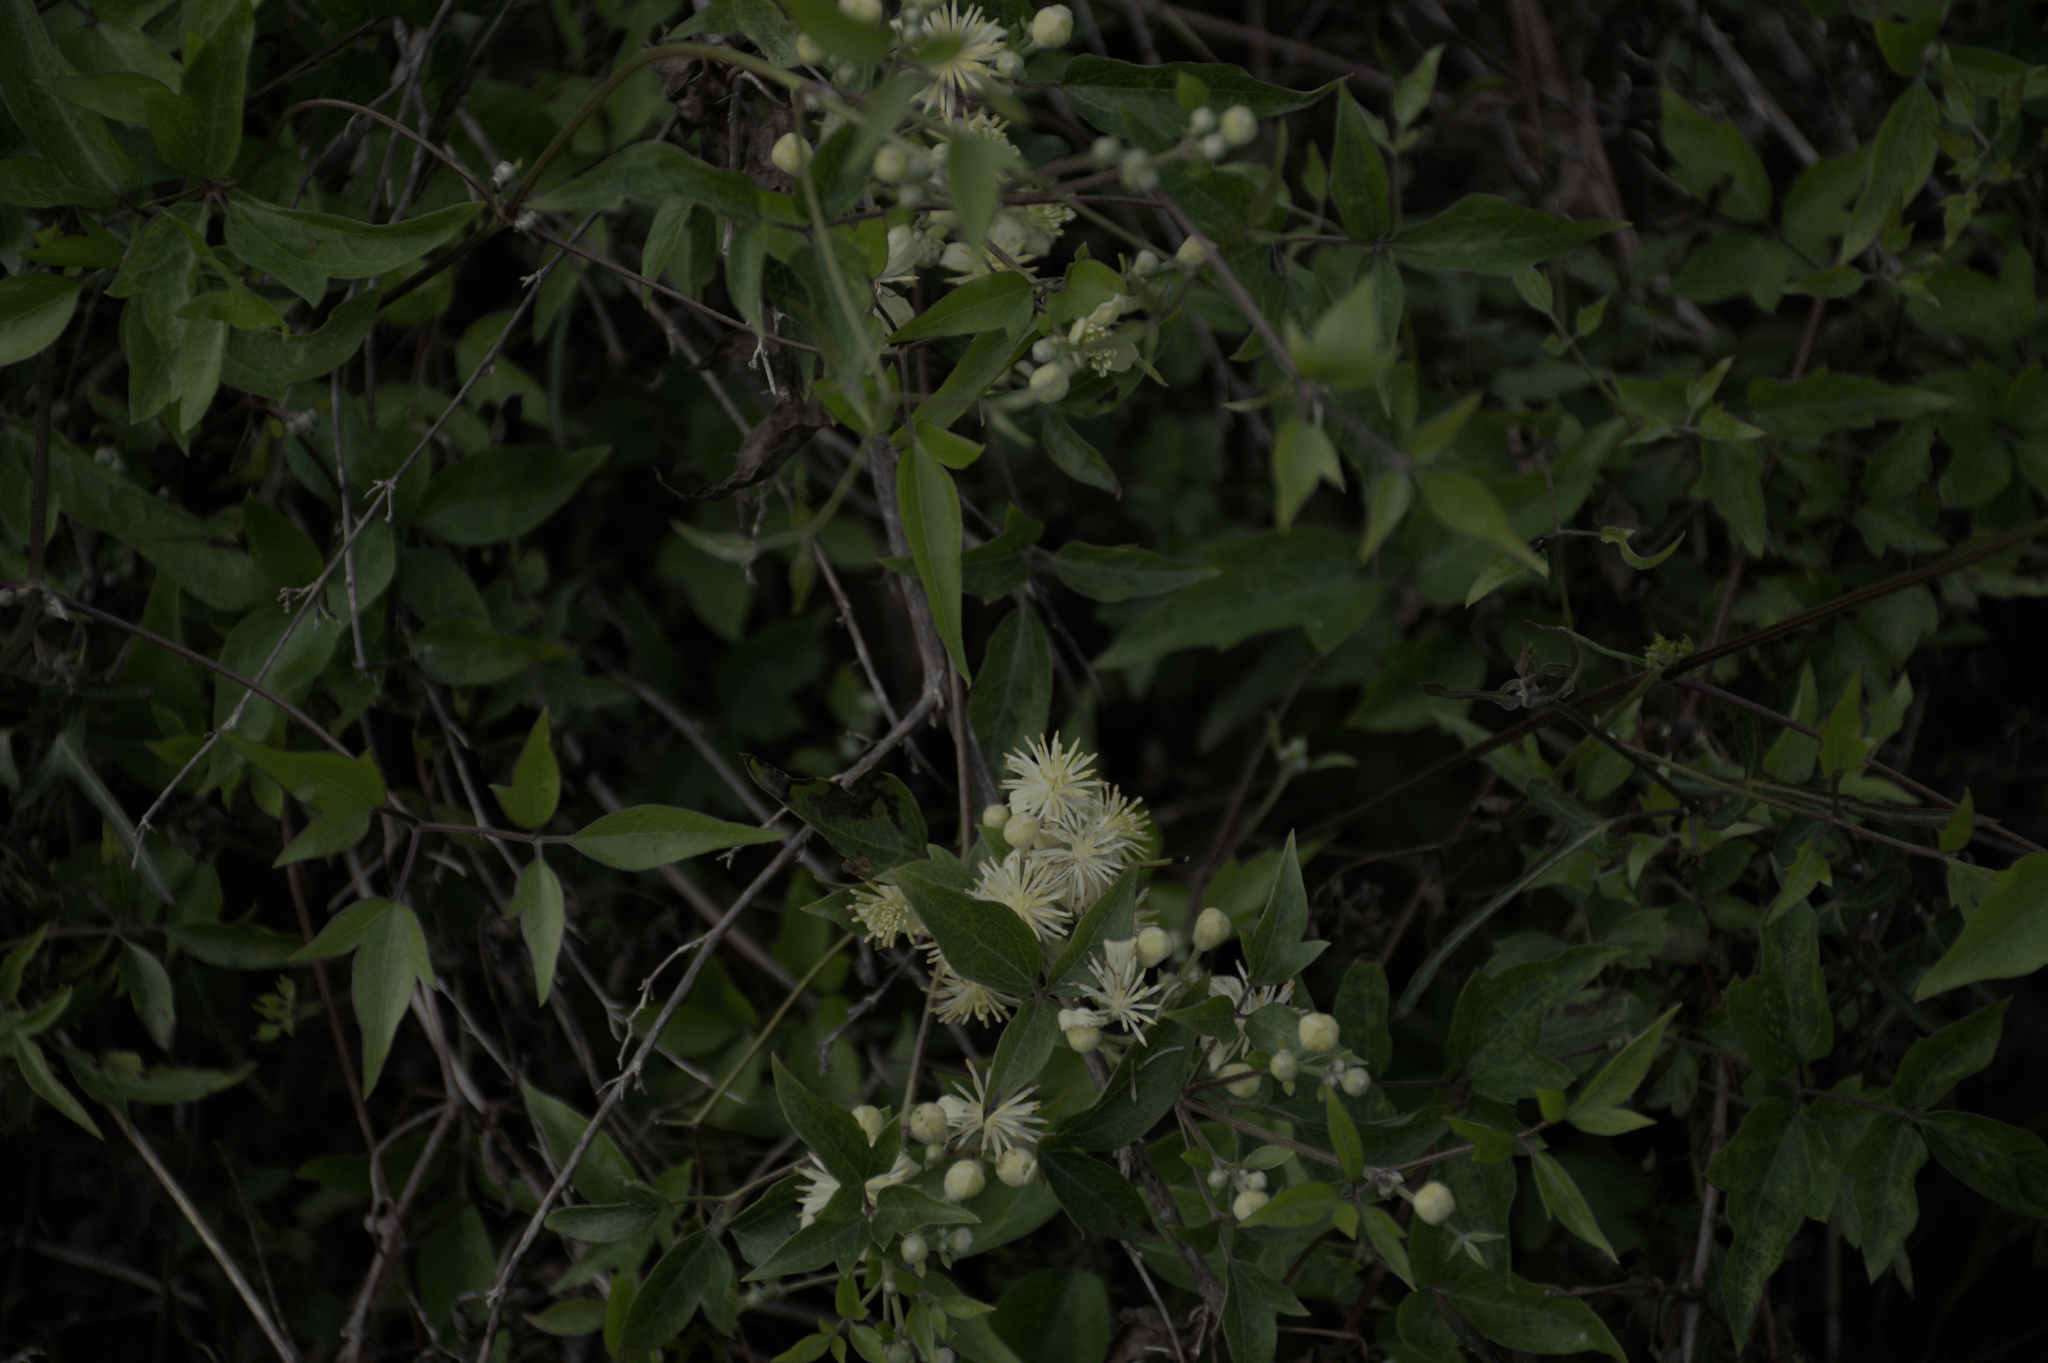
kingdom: Plantae
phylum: Tracheophyta
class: Magnoliopsida
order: Ranunculales
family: Ranunculaceae
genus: Clematis
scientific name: Clematis montevidensis
